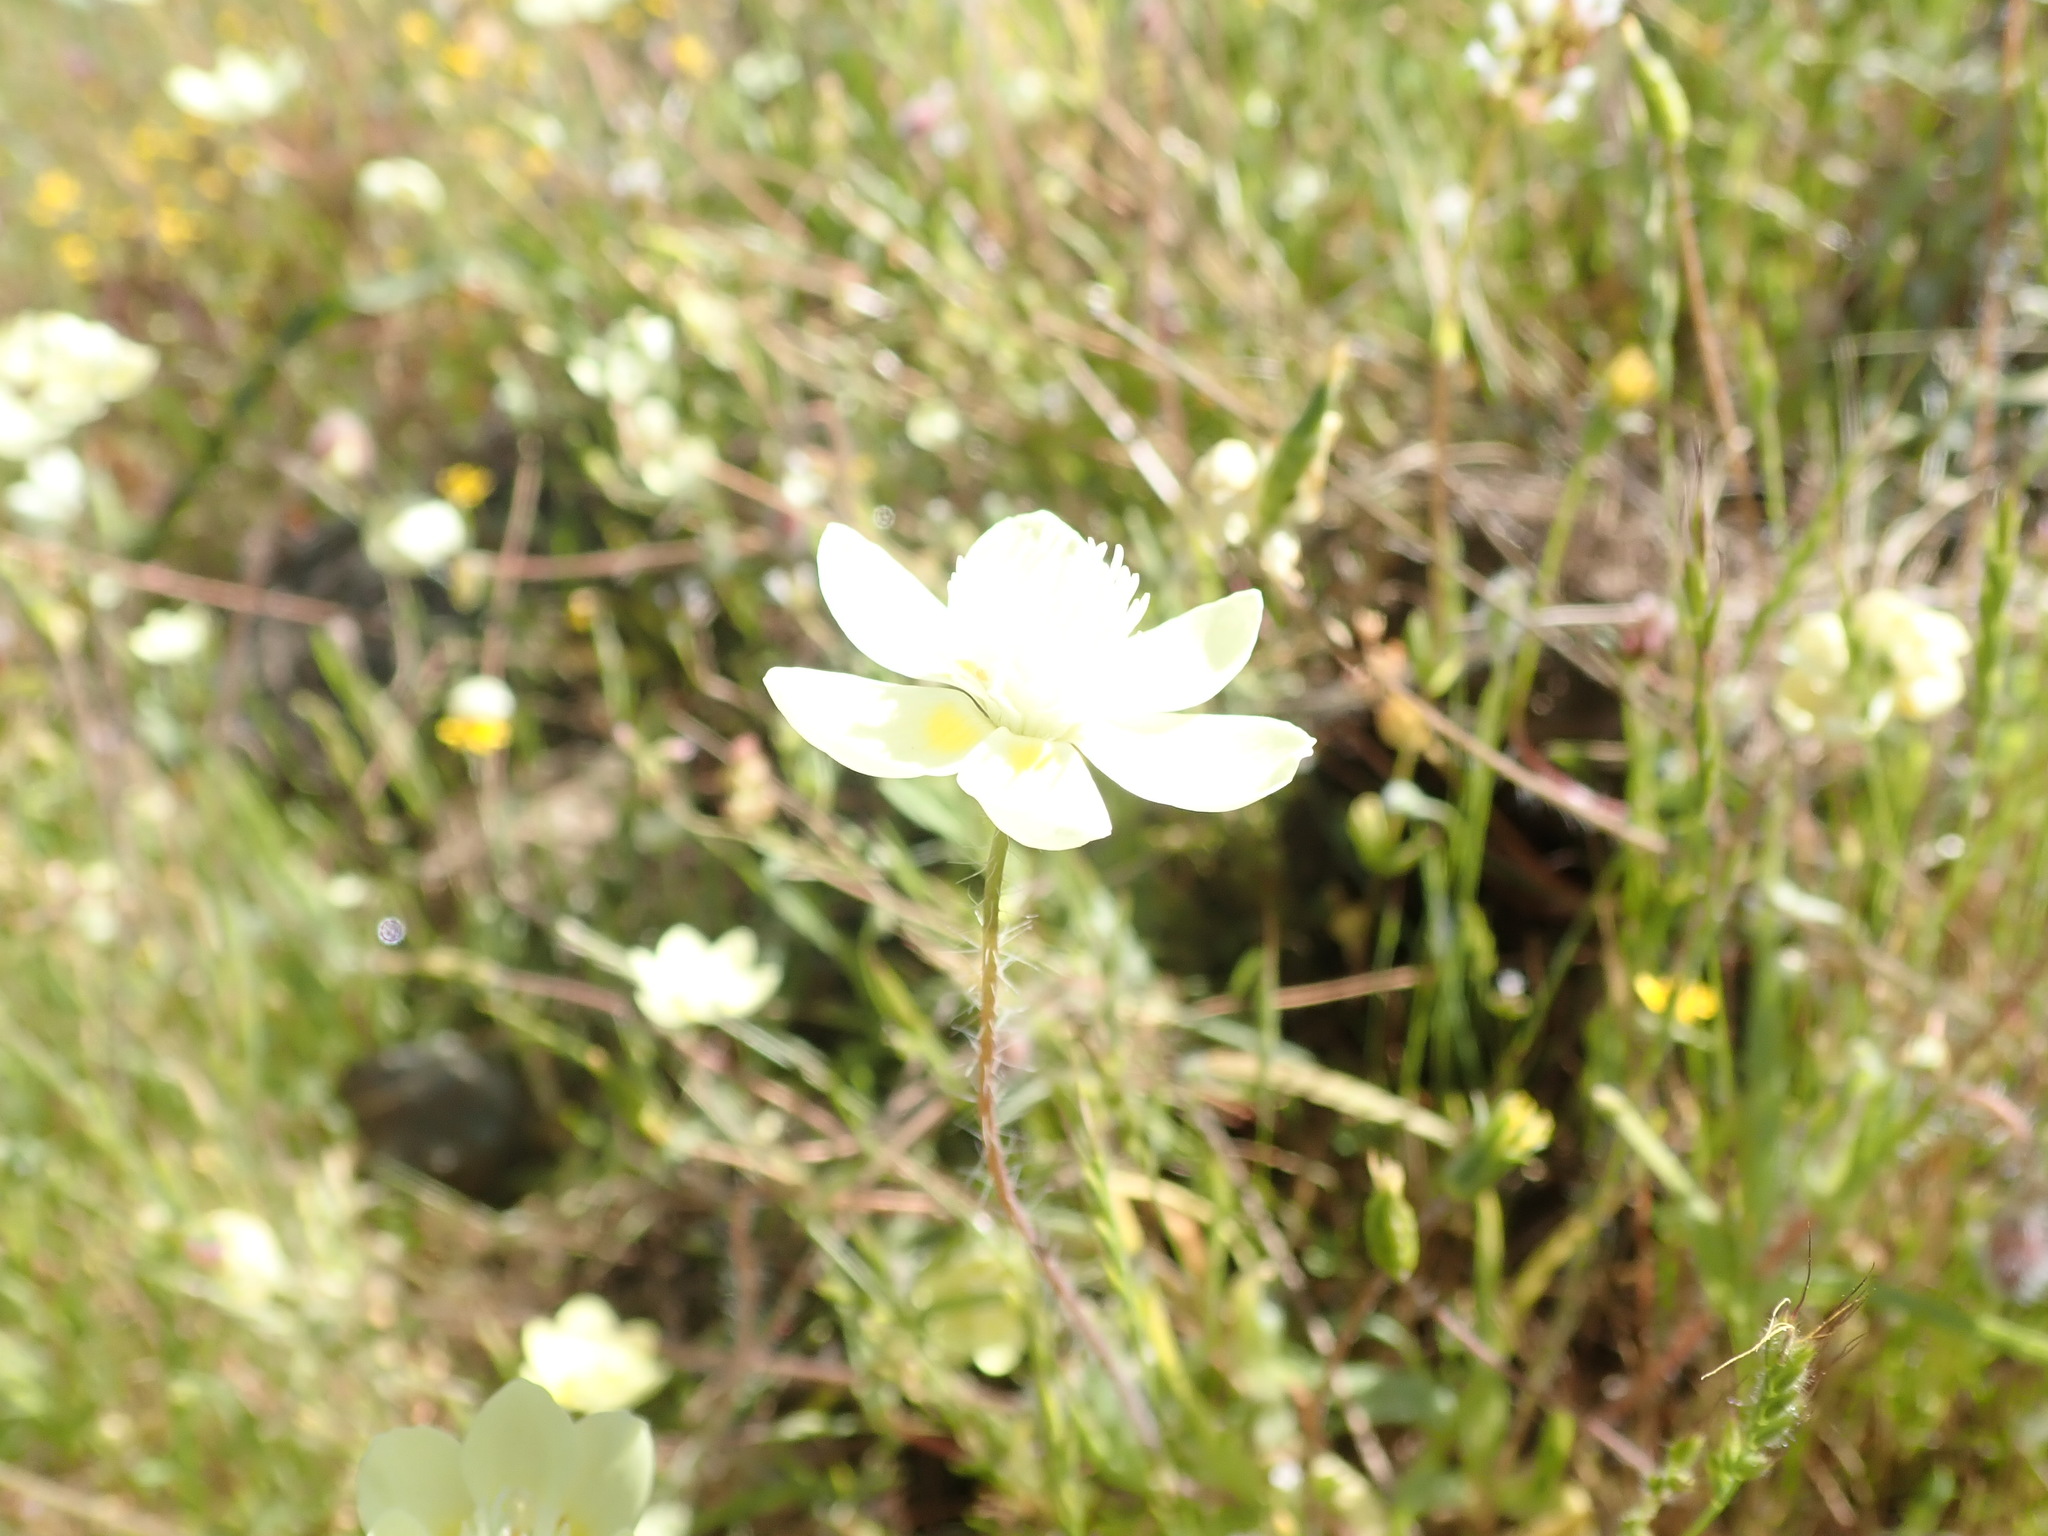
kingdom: Plantae
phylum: Tracheophyta
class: Magnoliopsida
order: Ranunculales
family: Papaveraceae
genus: Platystemon
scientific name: Platystemon californicus
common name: Cream-cups
